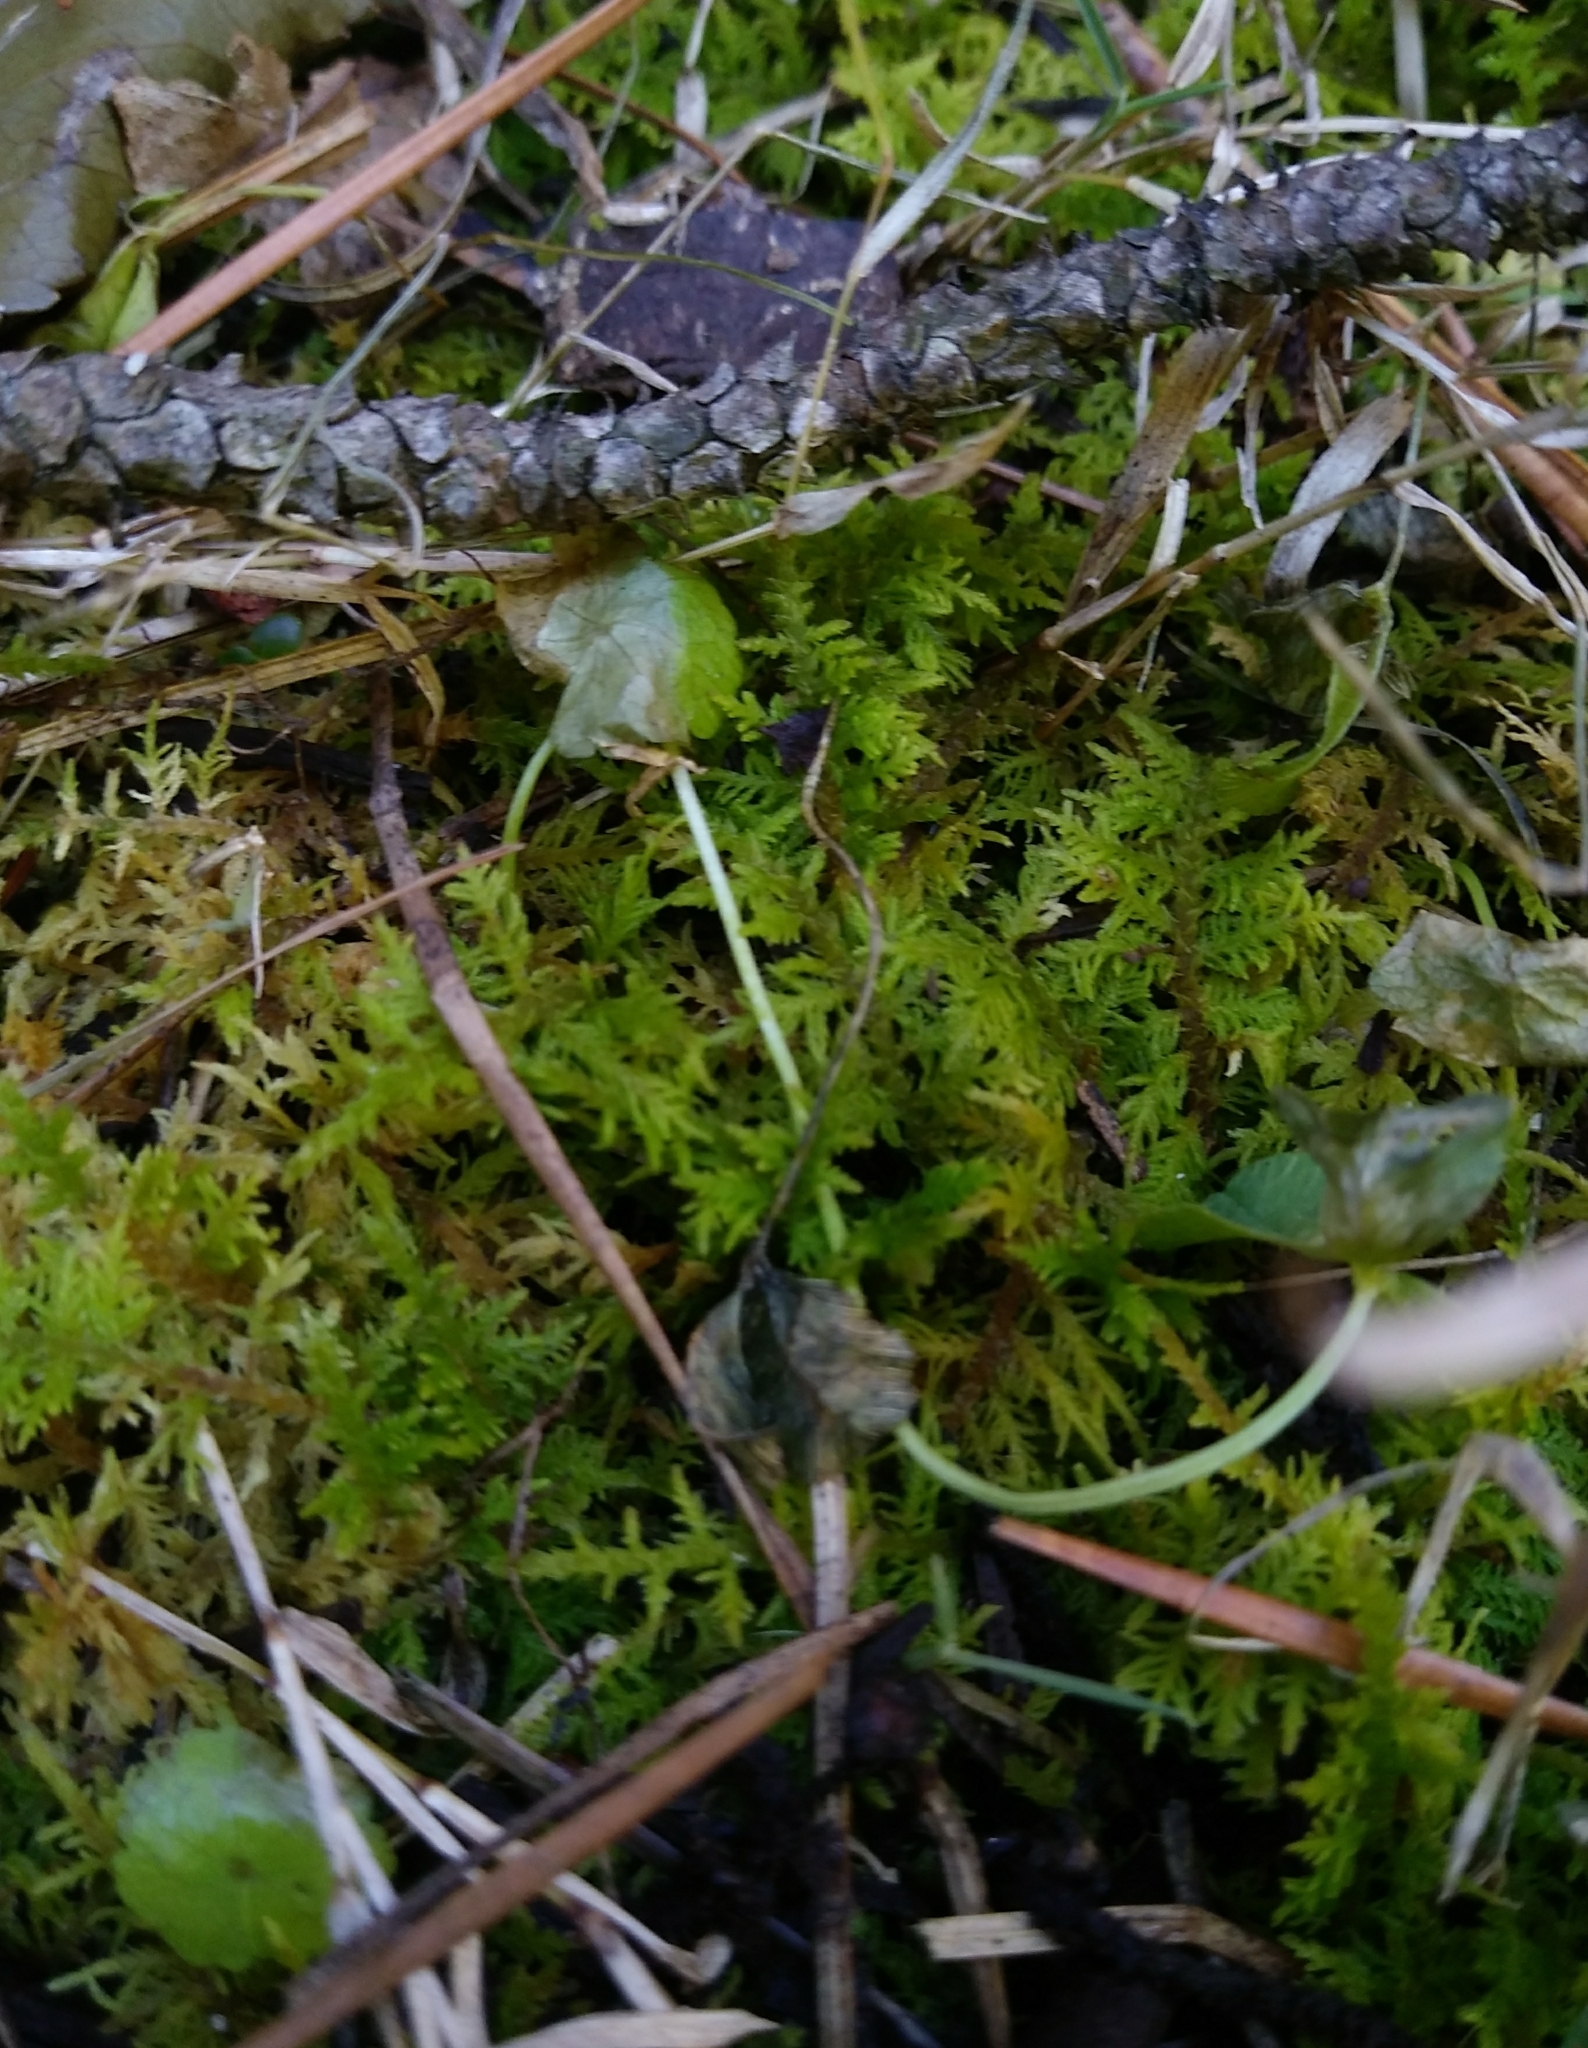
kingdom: Plantae
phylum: Bryophyta
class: Bryopsida
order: Hypnales
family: Thuidiaceae
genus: Thuidium
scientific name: Thuidium delicatulum
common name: Delicate fern moss
